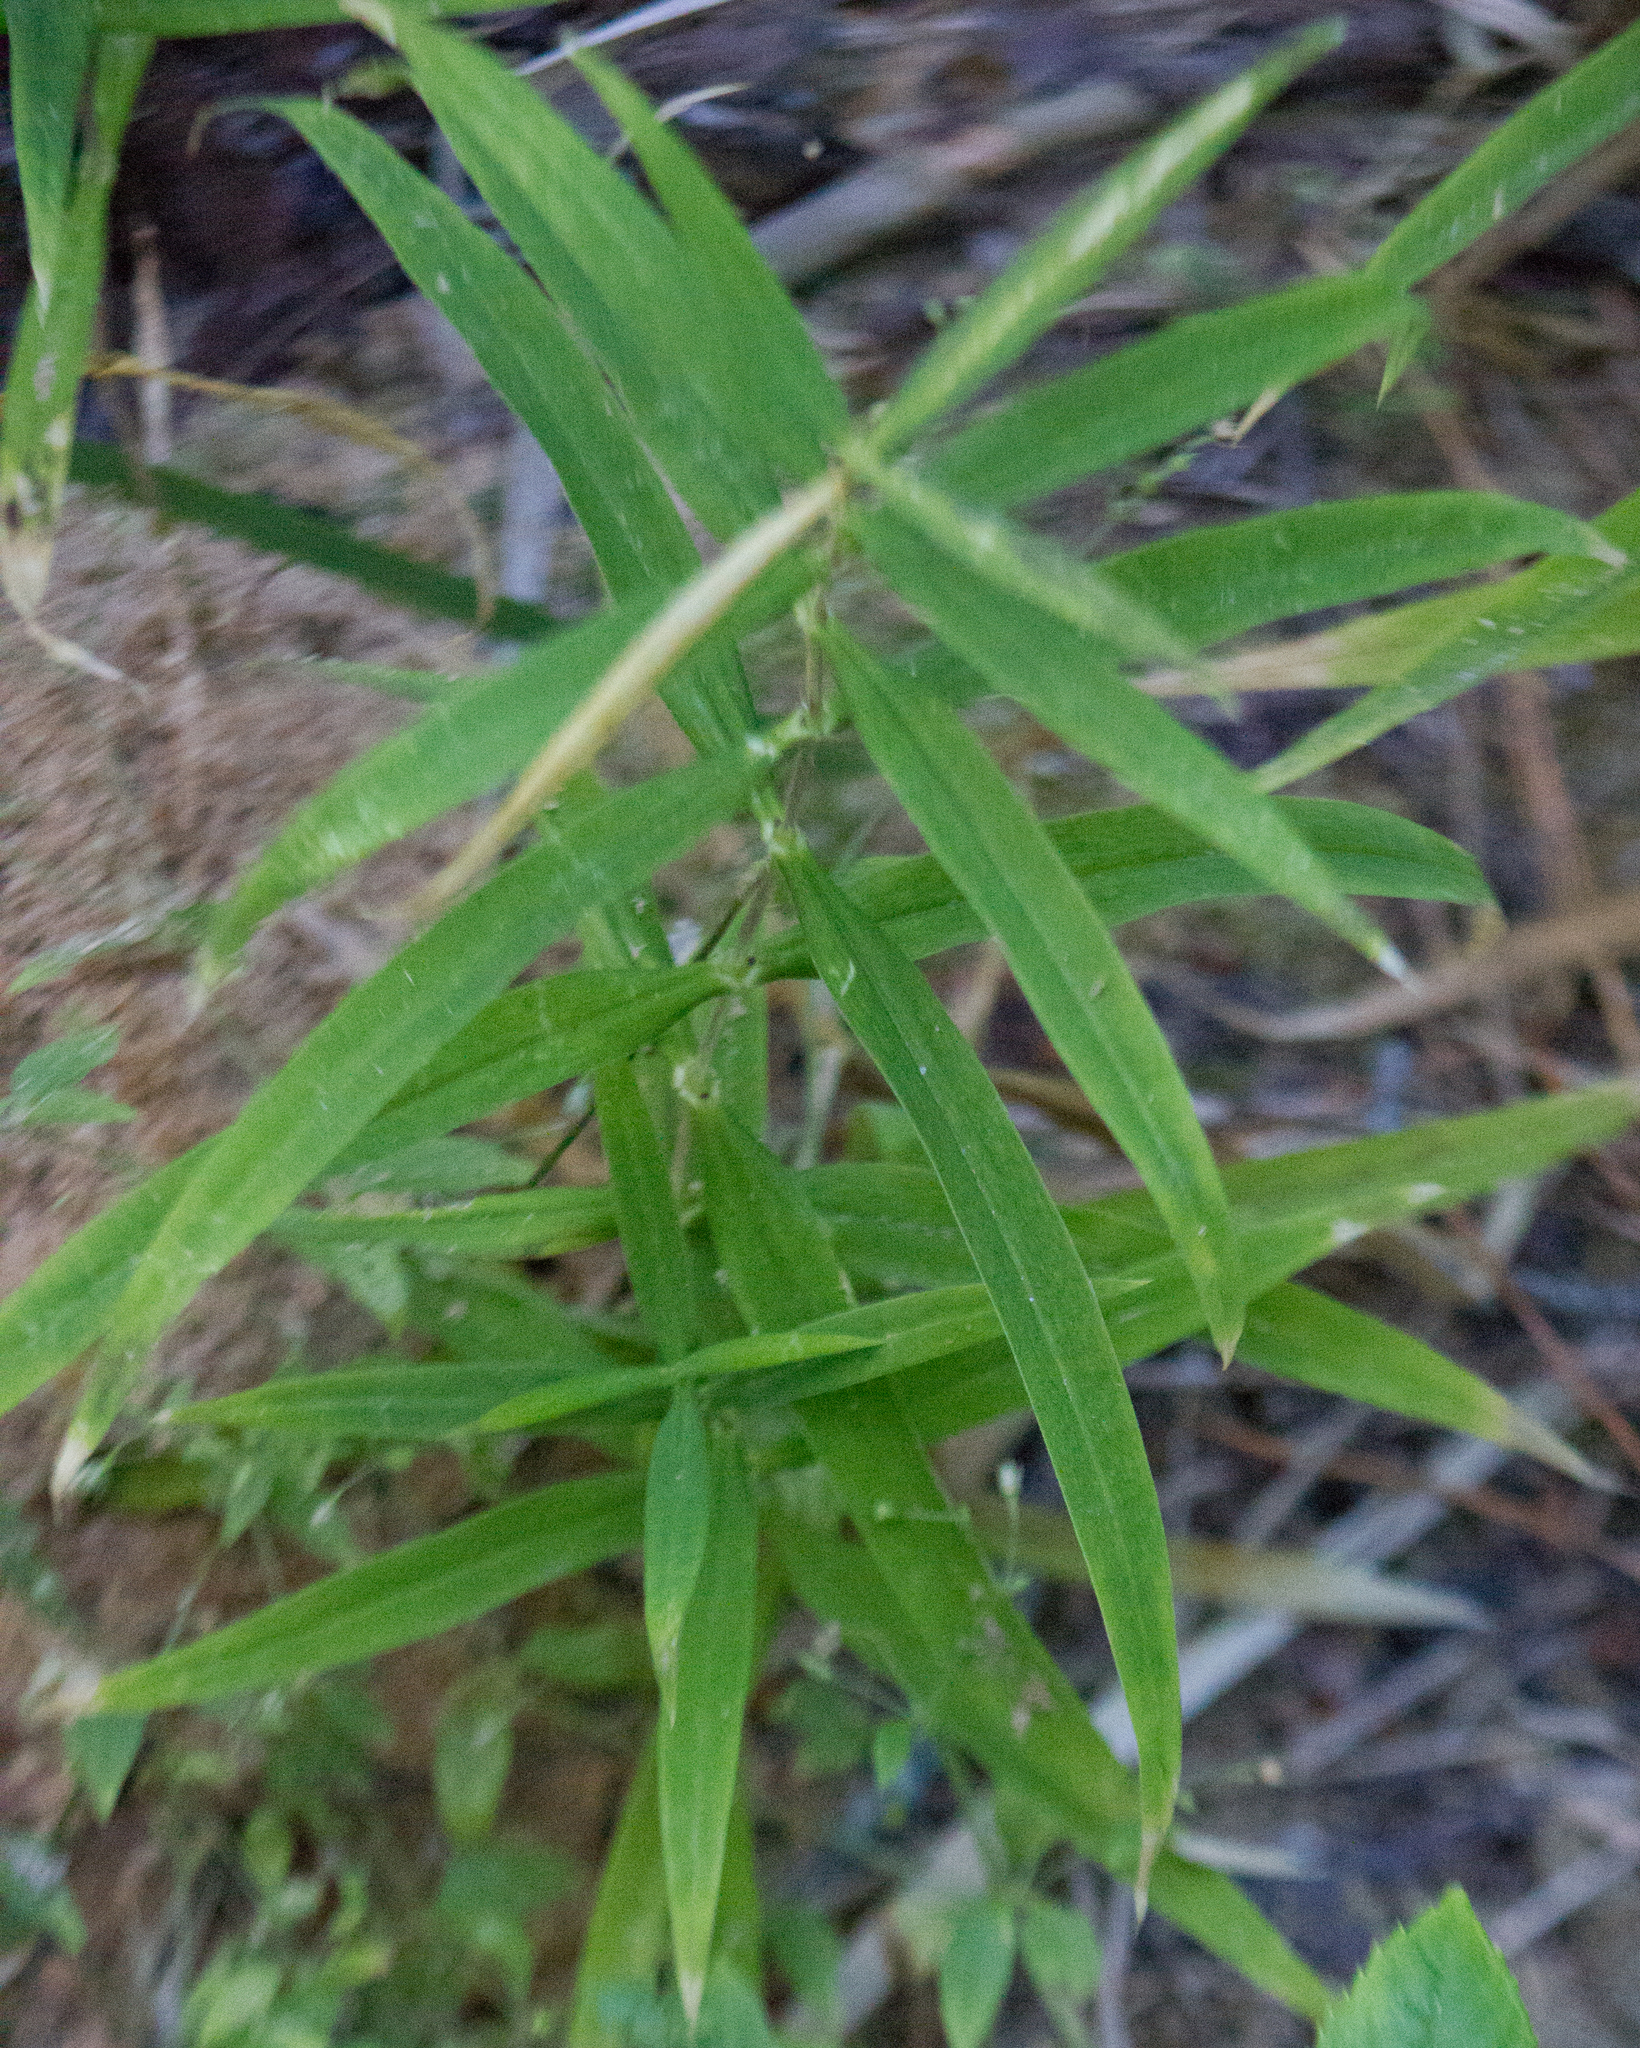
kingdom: Plantae
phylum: Tracheophyta
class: Magnoliopsida
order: Caryophyllales
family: Caryophyllaceae
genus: Rabelera
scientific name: Rabelera holostea
